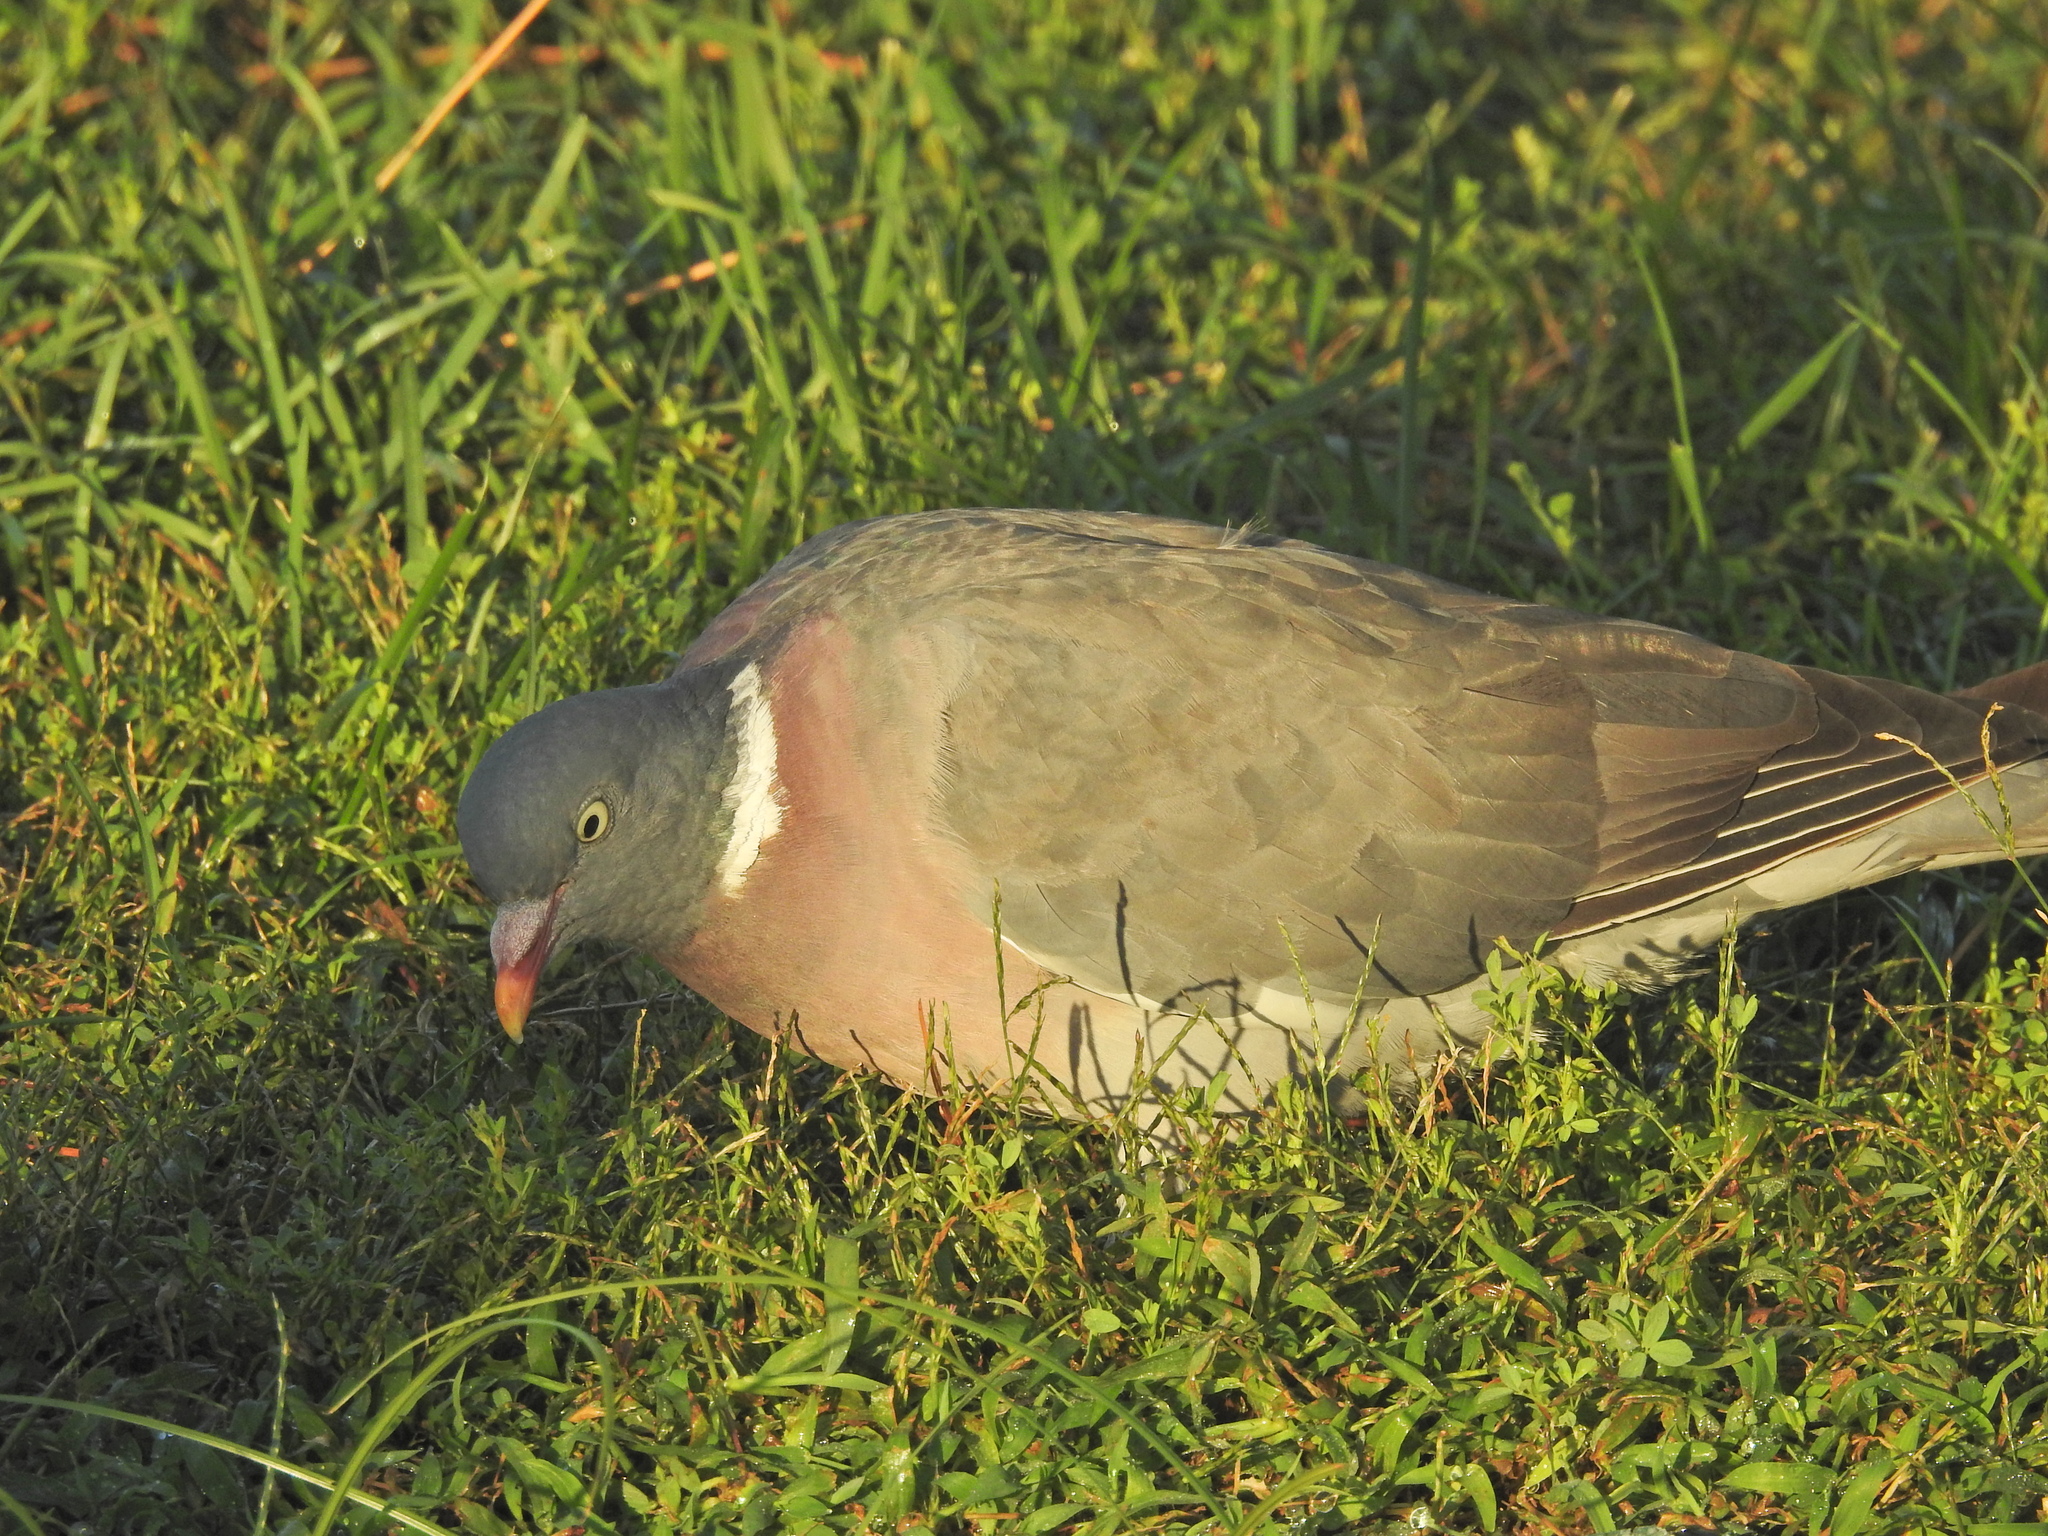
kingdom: Animalia
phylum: Chordata
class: Aves
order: Columbiformes
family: Columbidae
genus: Columba
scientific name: Columba palumbus
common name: Common wood pigeon
